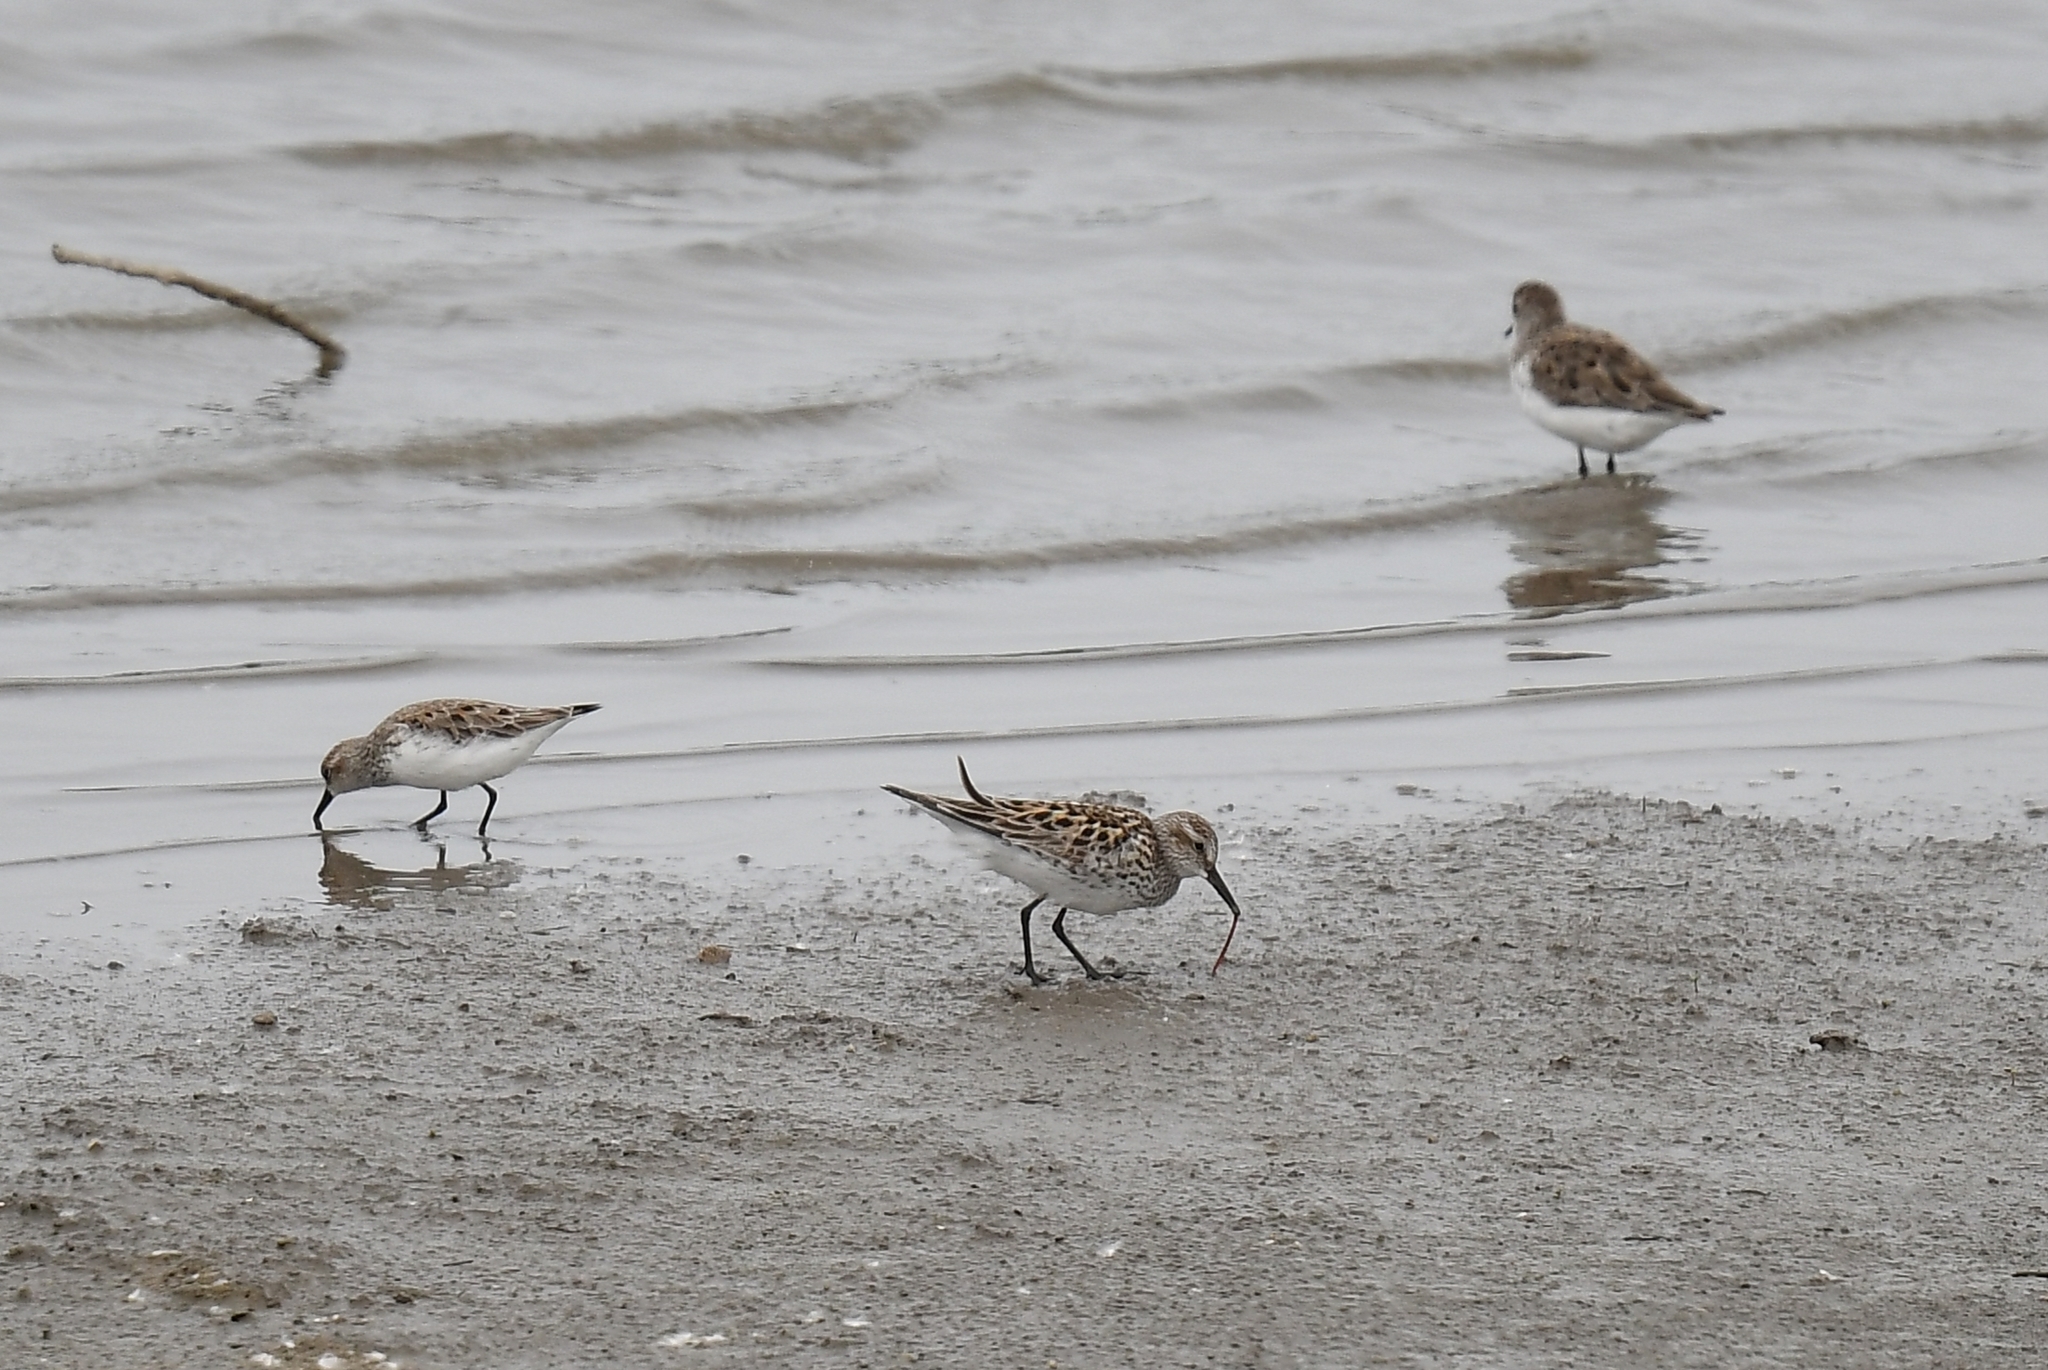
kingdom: Animalia
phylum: Chordata
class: Aves
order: Charadriiformes
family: Scolopacidae
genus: Calidris
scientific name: Calidris pusilla
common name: Semipalmated sandpiper
